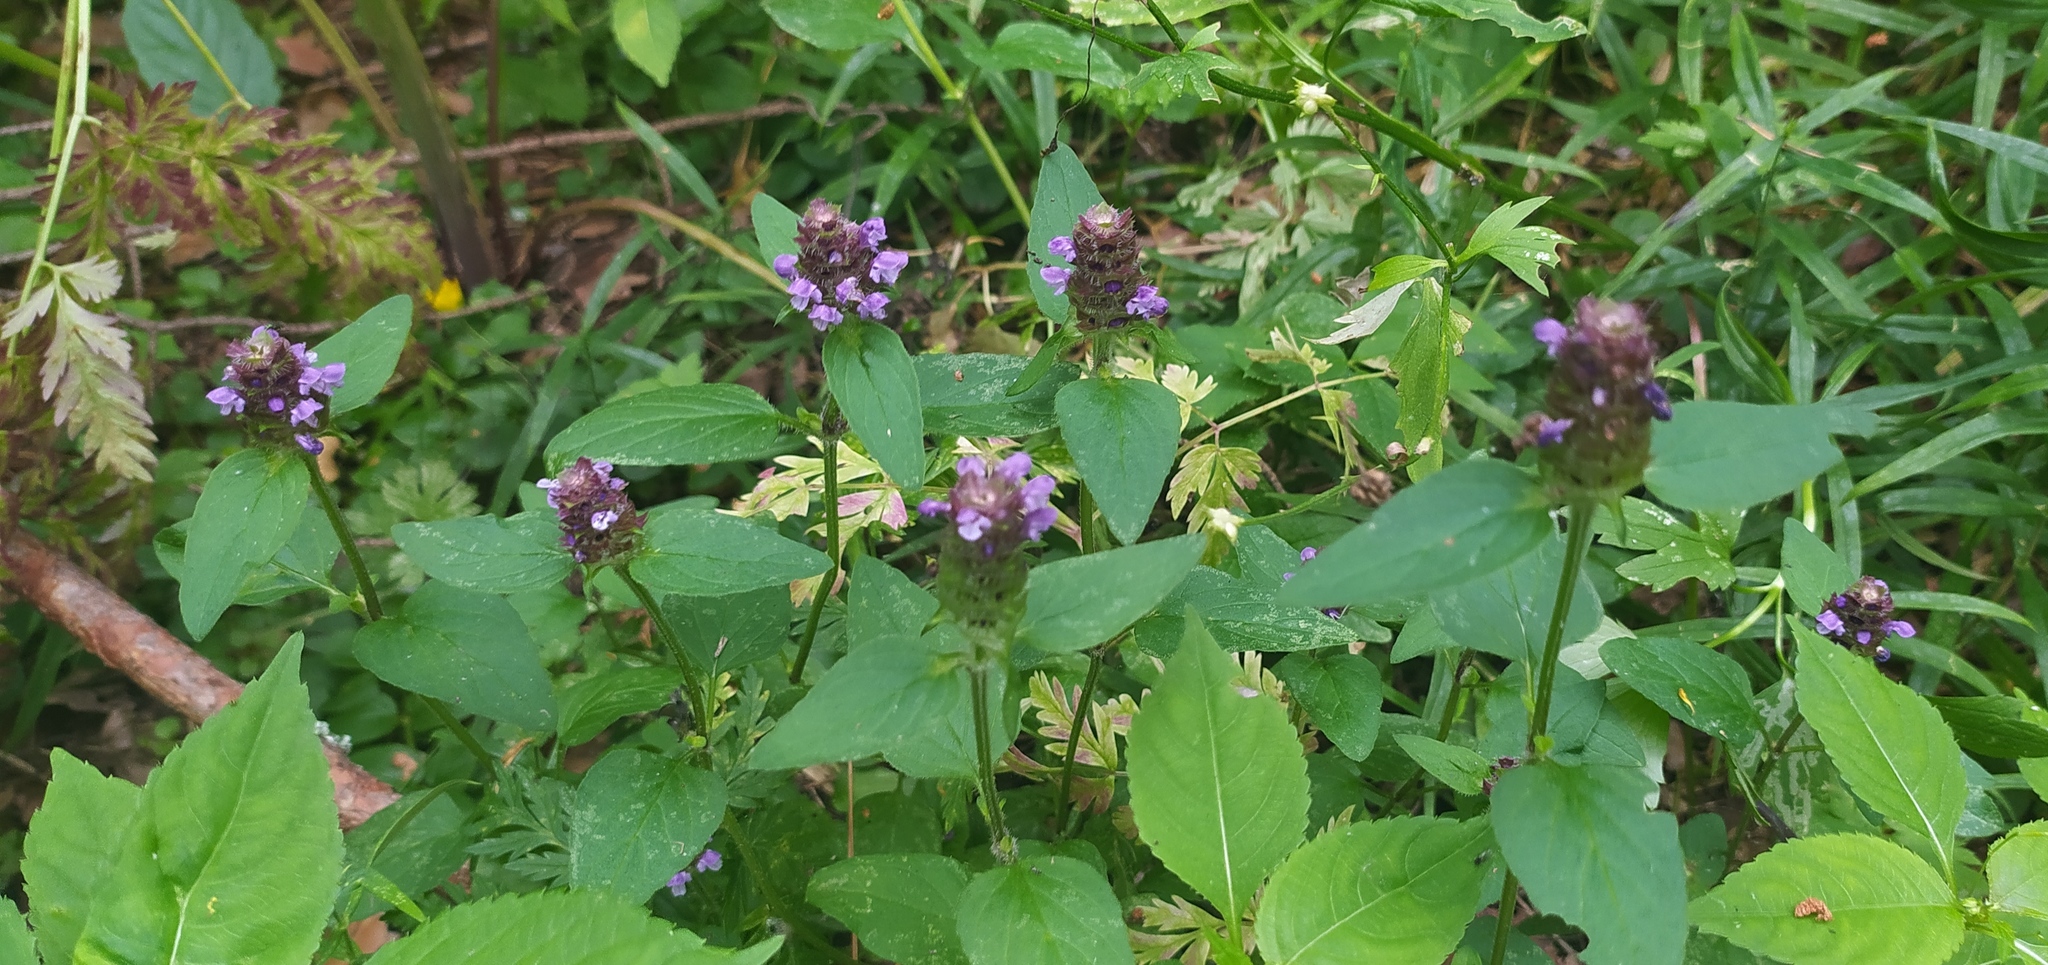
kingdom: Plantae
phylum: Tracheophyta
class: Magnoliopsida
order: Lamiales
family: Lamiaceae
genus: Prunella
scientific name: Prunella vulgaris
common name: Heal-all
